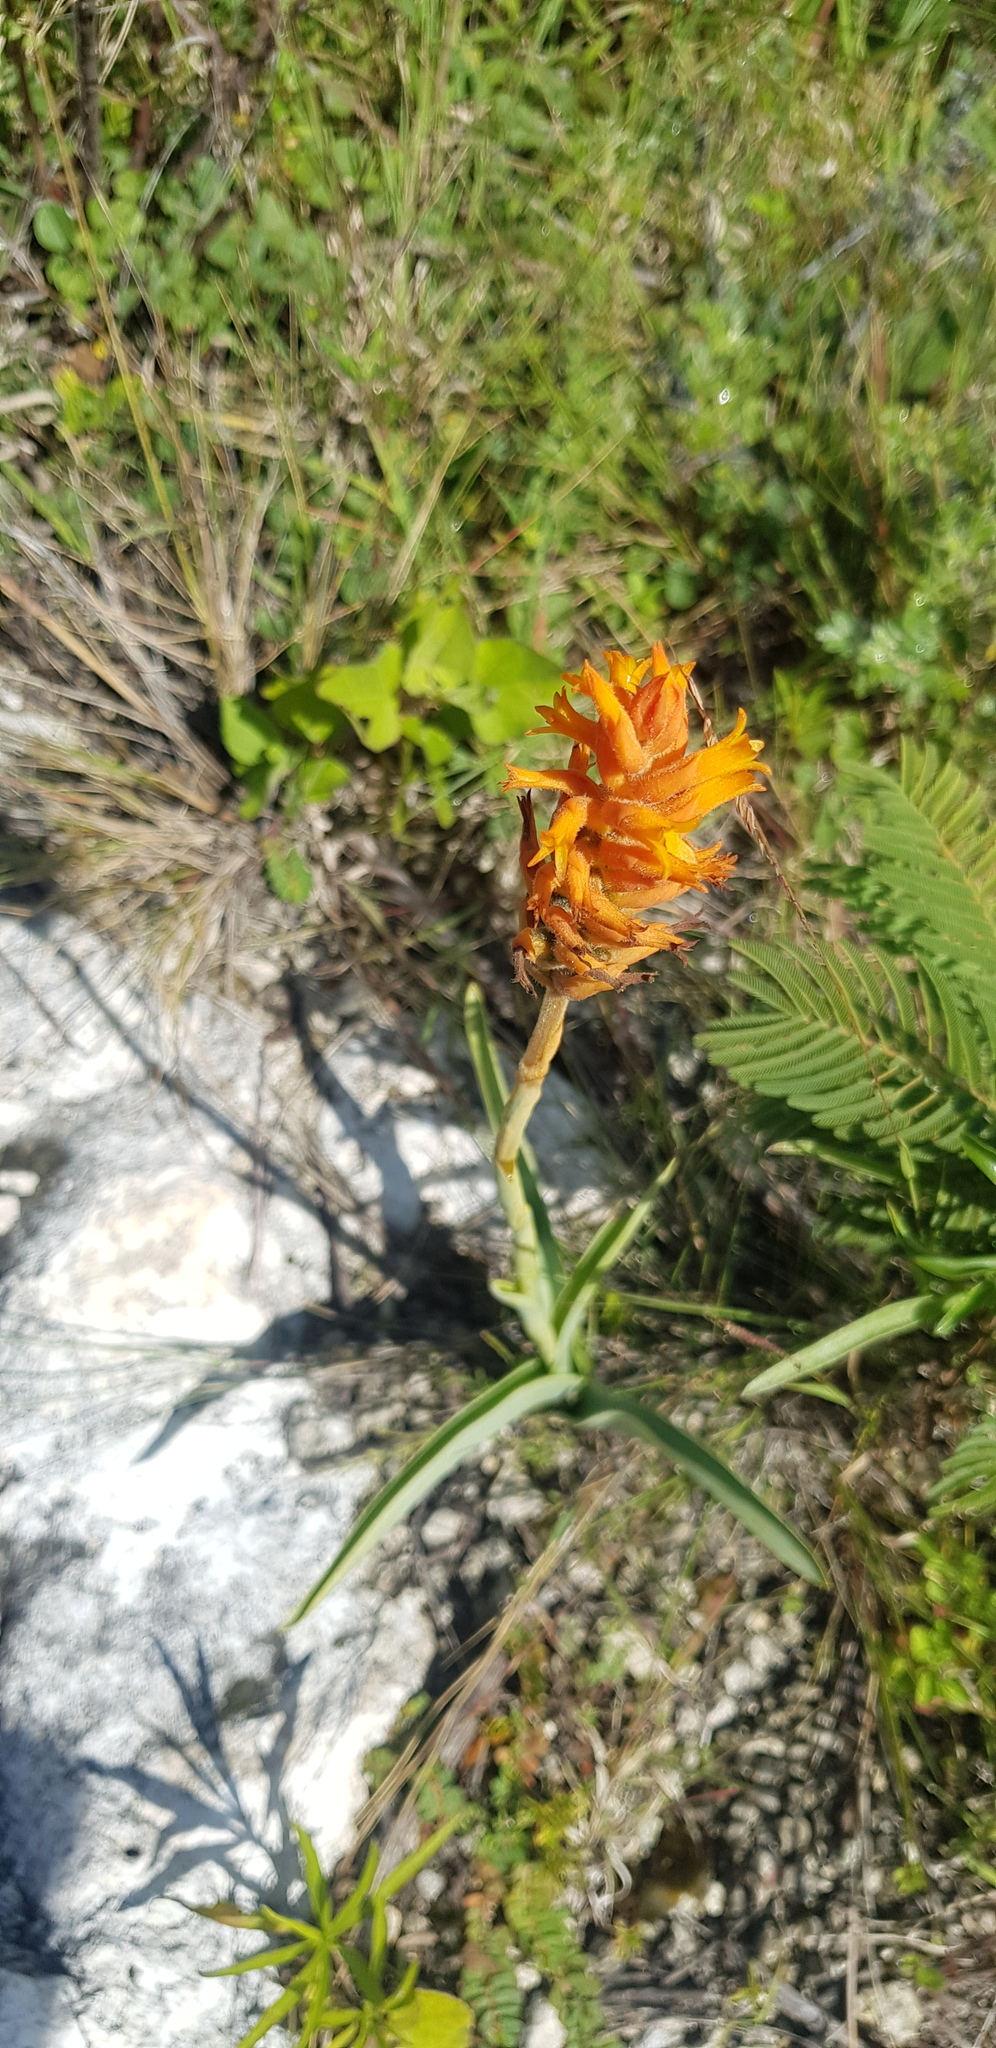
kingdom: Plantae
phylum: Tracheophyta
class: Liliopsida
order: Asparagales
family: Orchidaceae
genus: Dichromanthus
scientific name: Dichromanthus cinnabarinus
